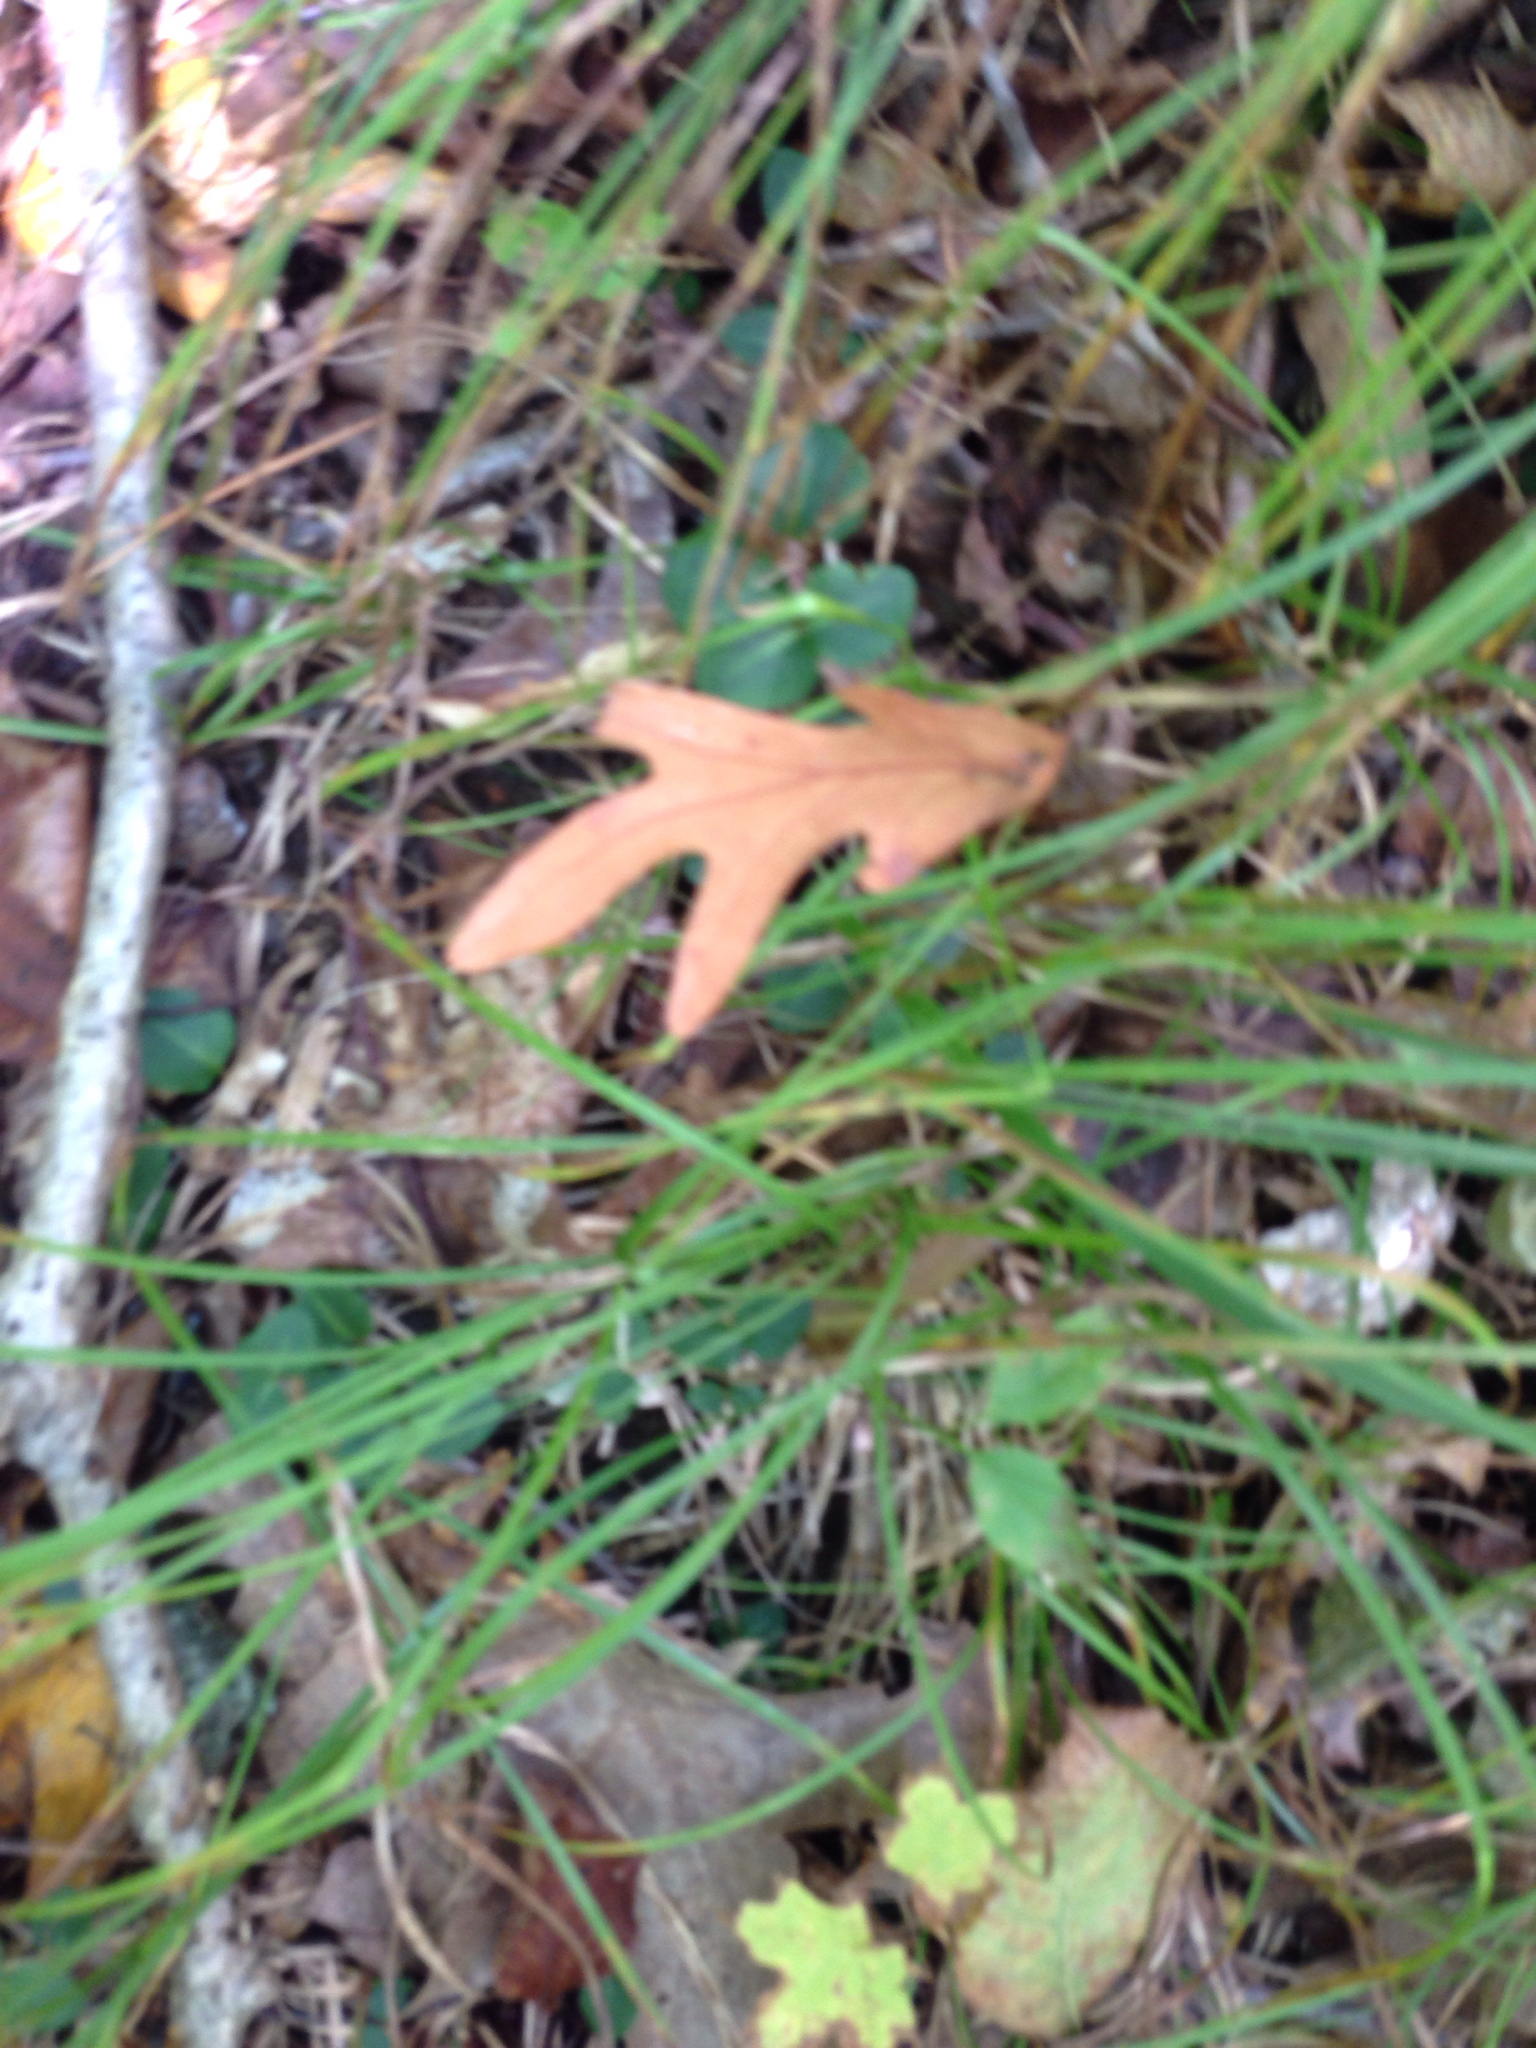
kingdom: Plantae
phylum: Tracheophyta
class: Magnoliopsida
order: Fagales
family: Fagaceae
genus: Quercus
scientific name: Quercus alba
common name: White oak
